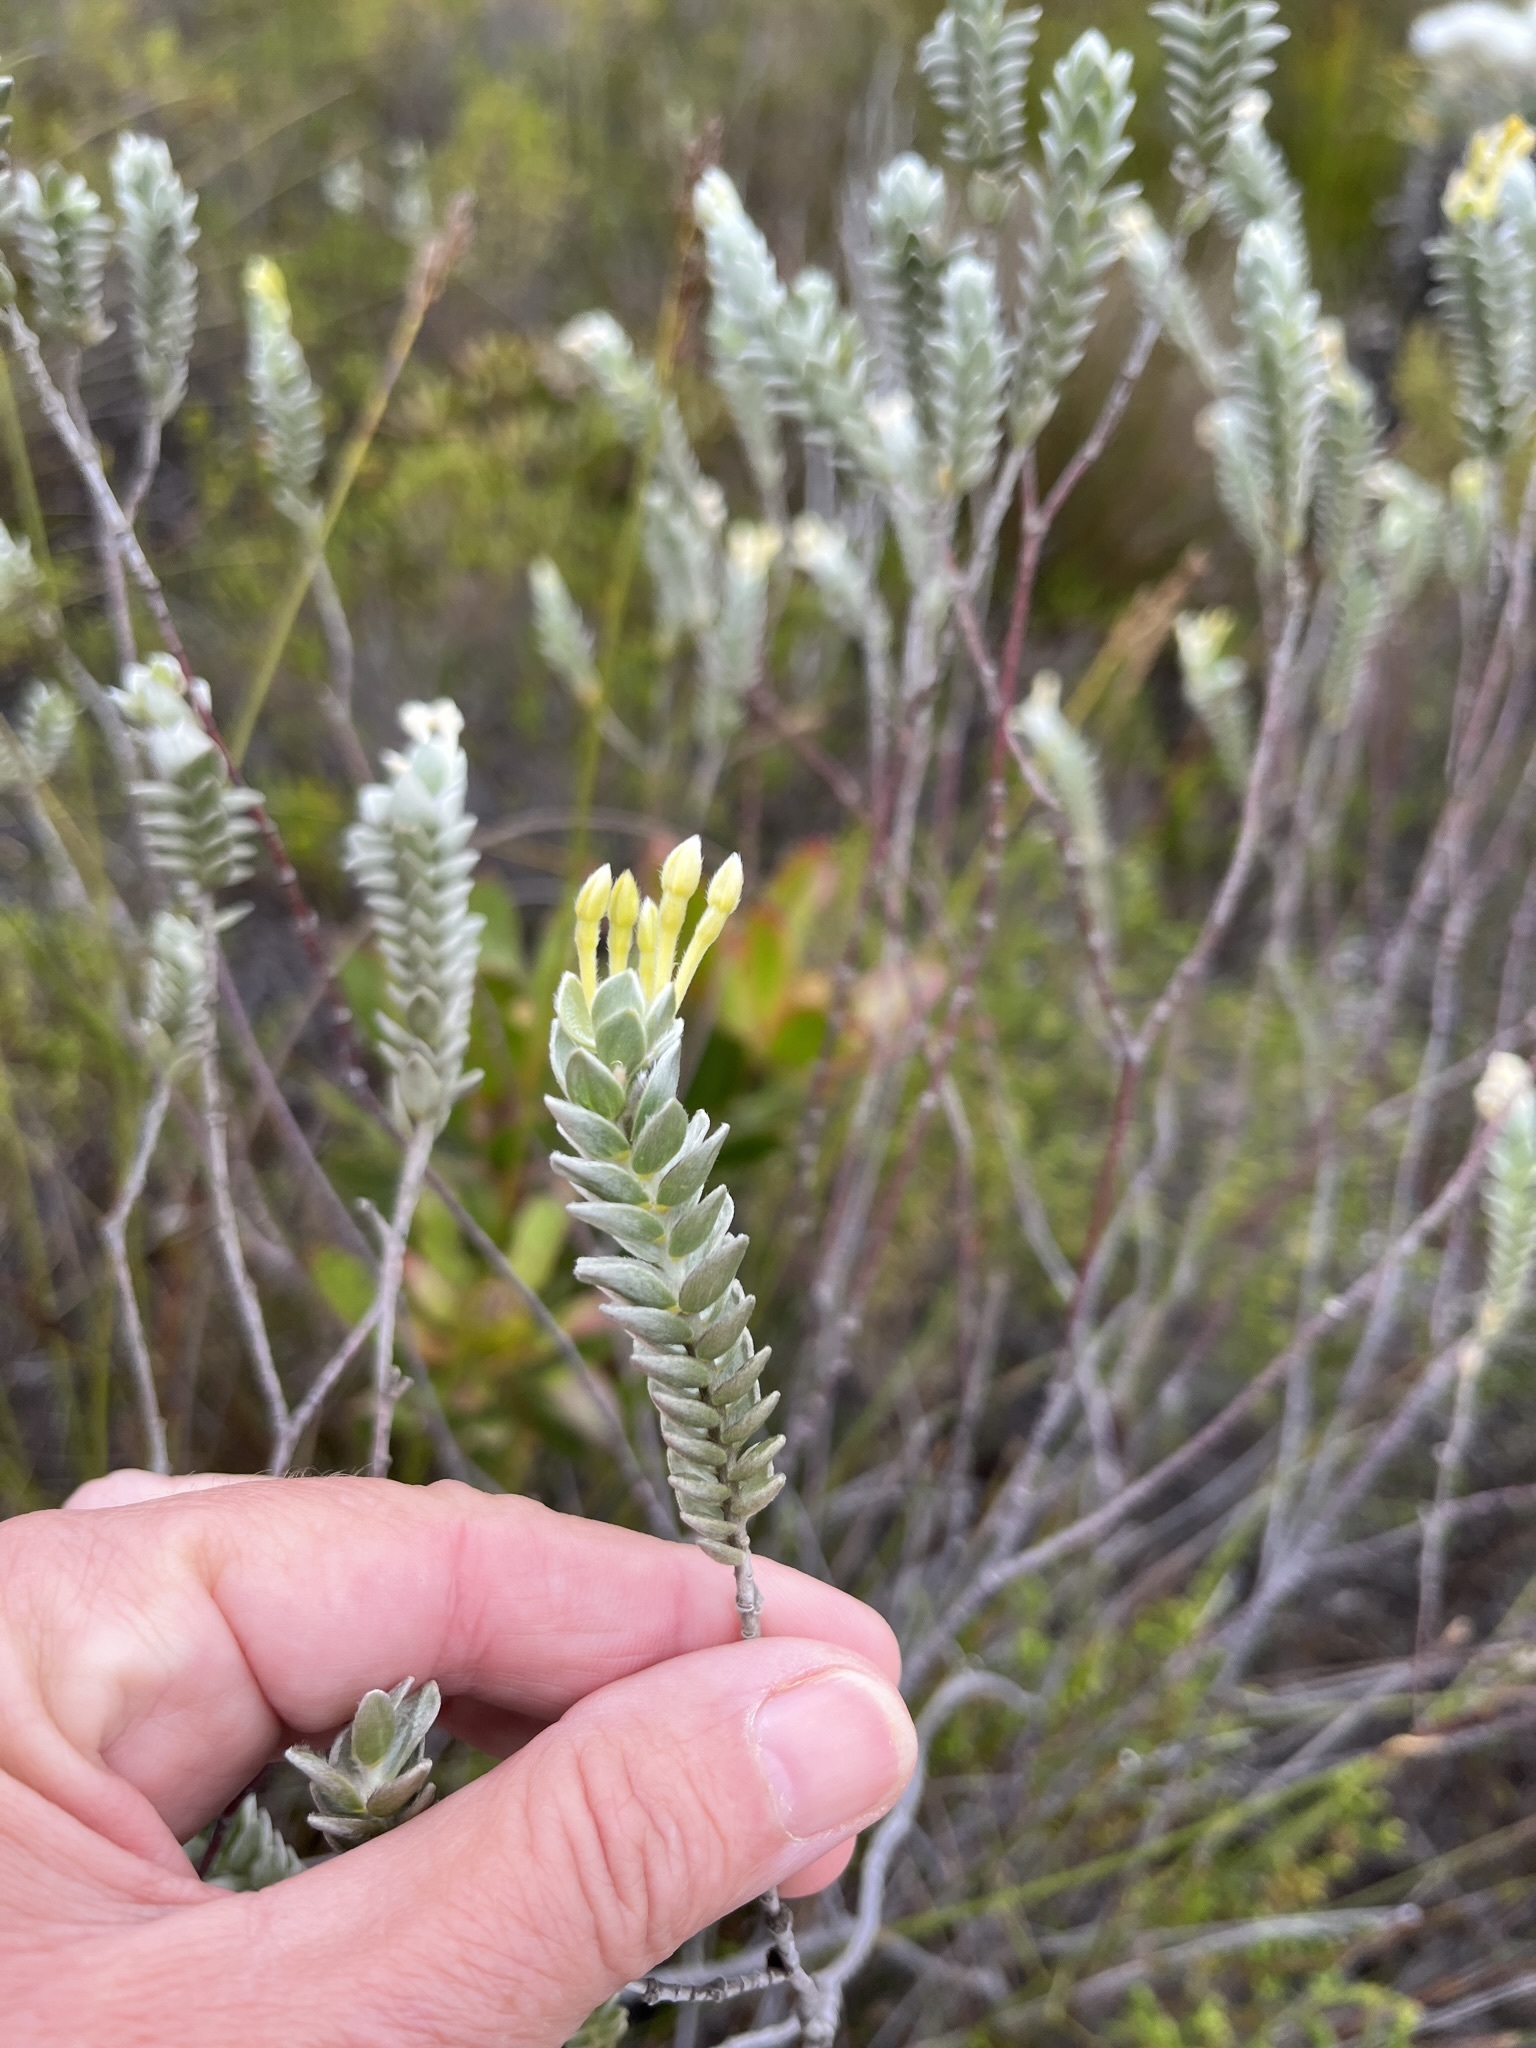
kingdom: Plantae
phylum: Tracheophyta
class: Magnoliopsida
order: Malvales
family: Thymelaeaceae
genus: Gnidia
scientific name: Gnidia anomala
